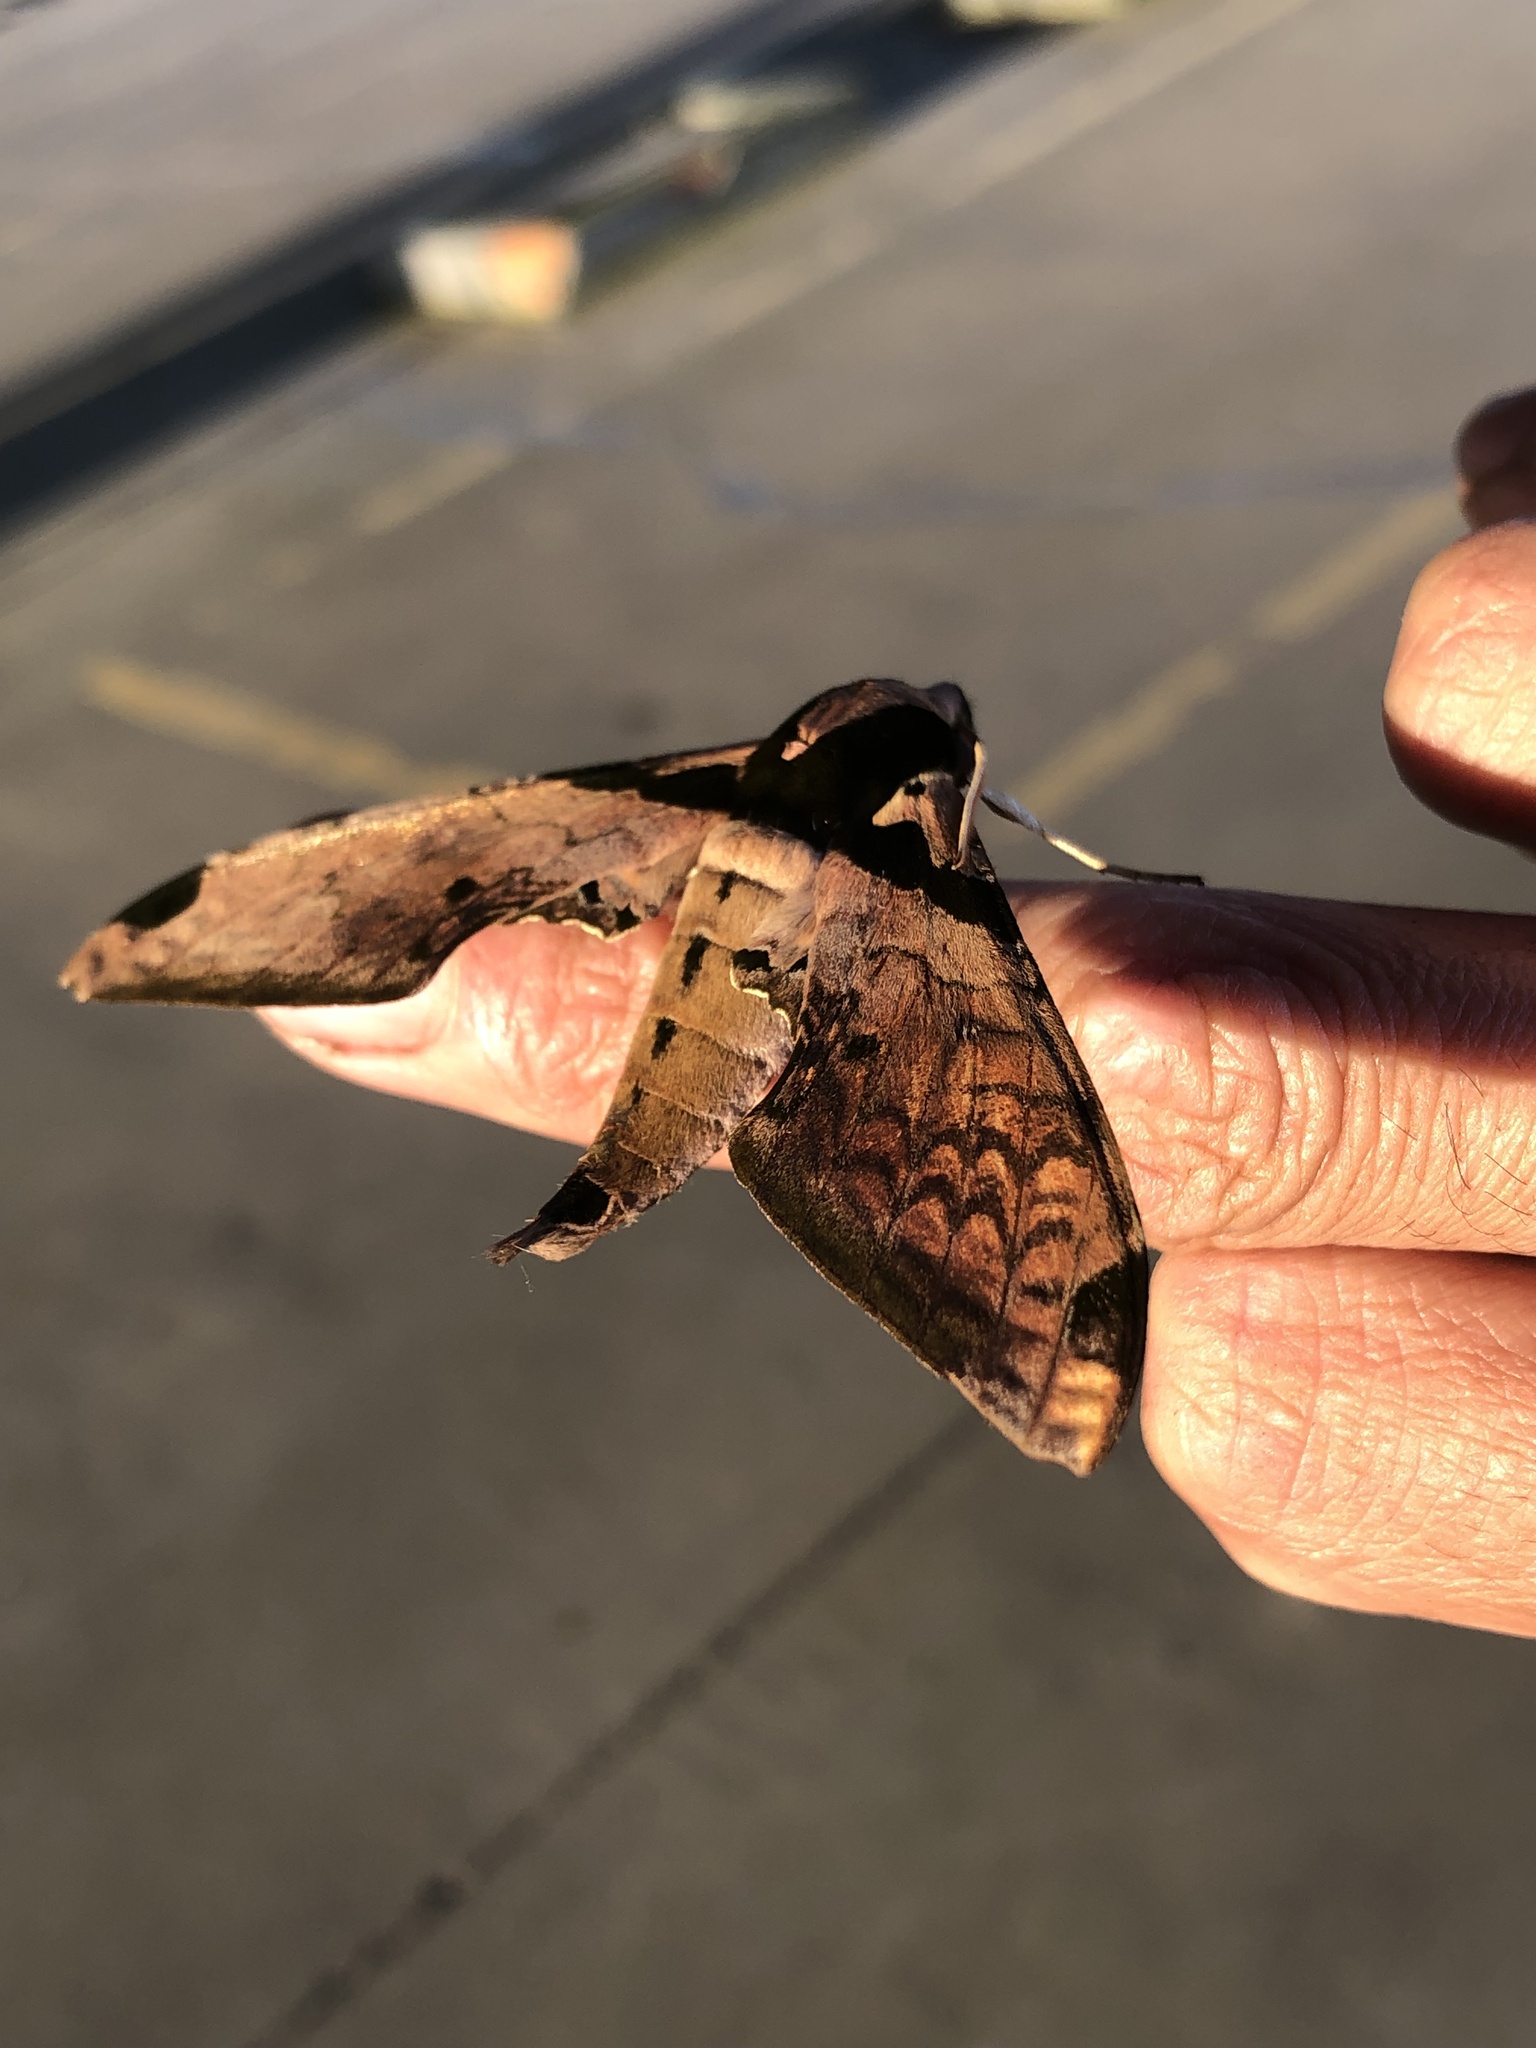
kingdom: Animalia
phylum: Arthropoda
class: Insecta
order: Lepidoptera
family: Sphingidae
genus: Adhemarius
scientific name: Adhemarius eurysthenes
